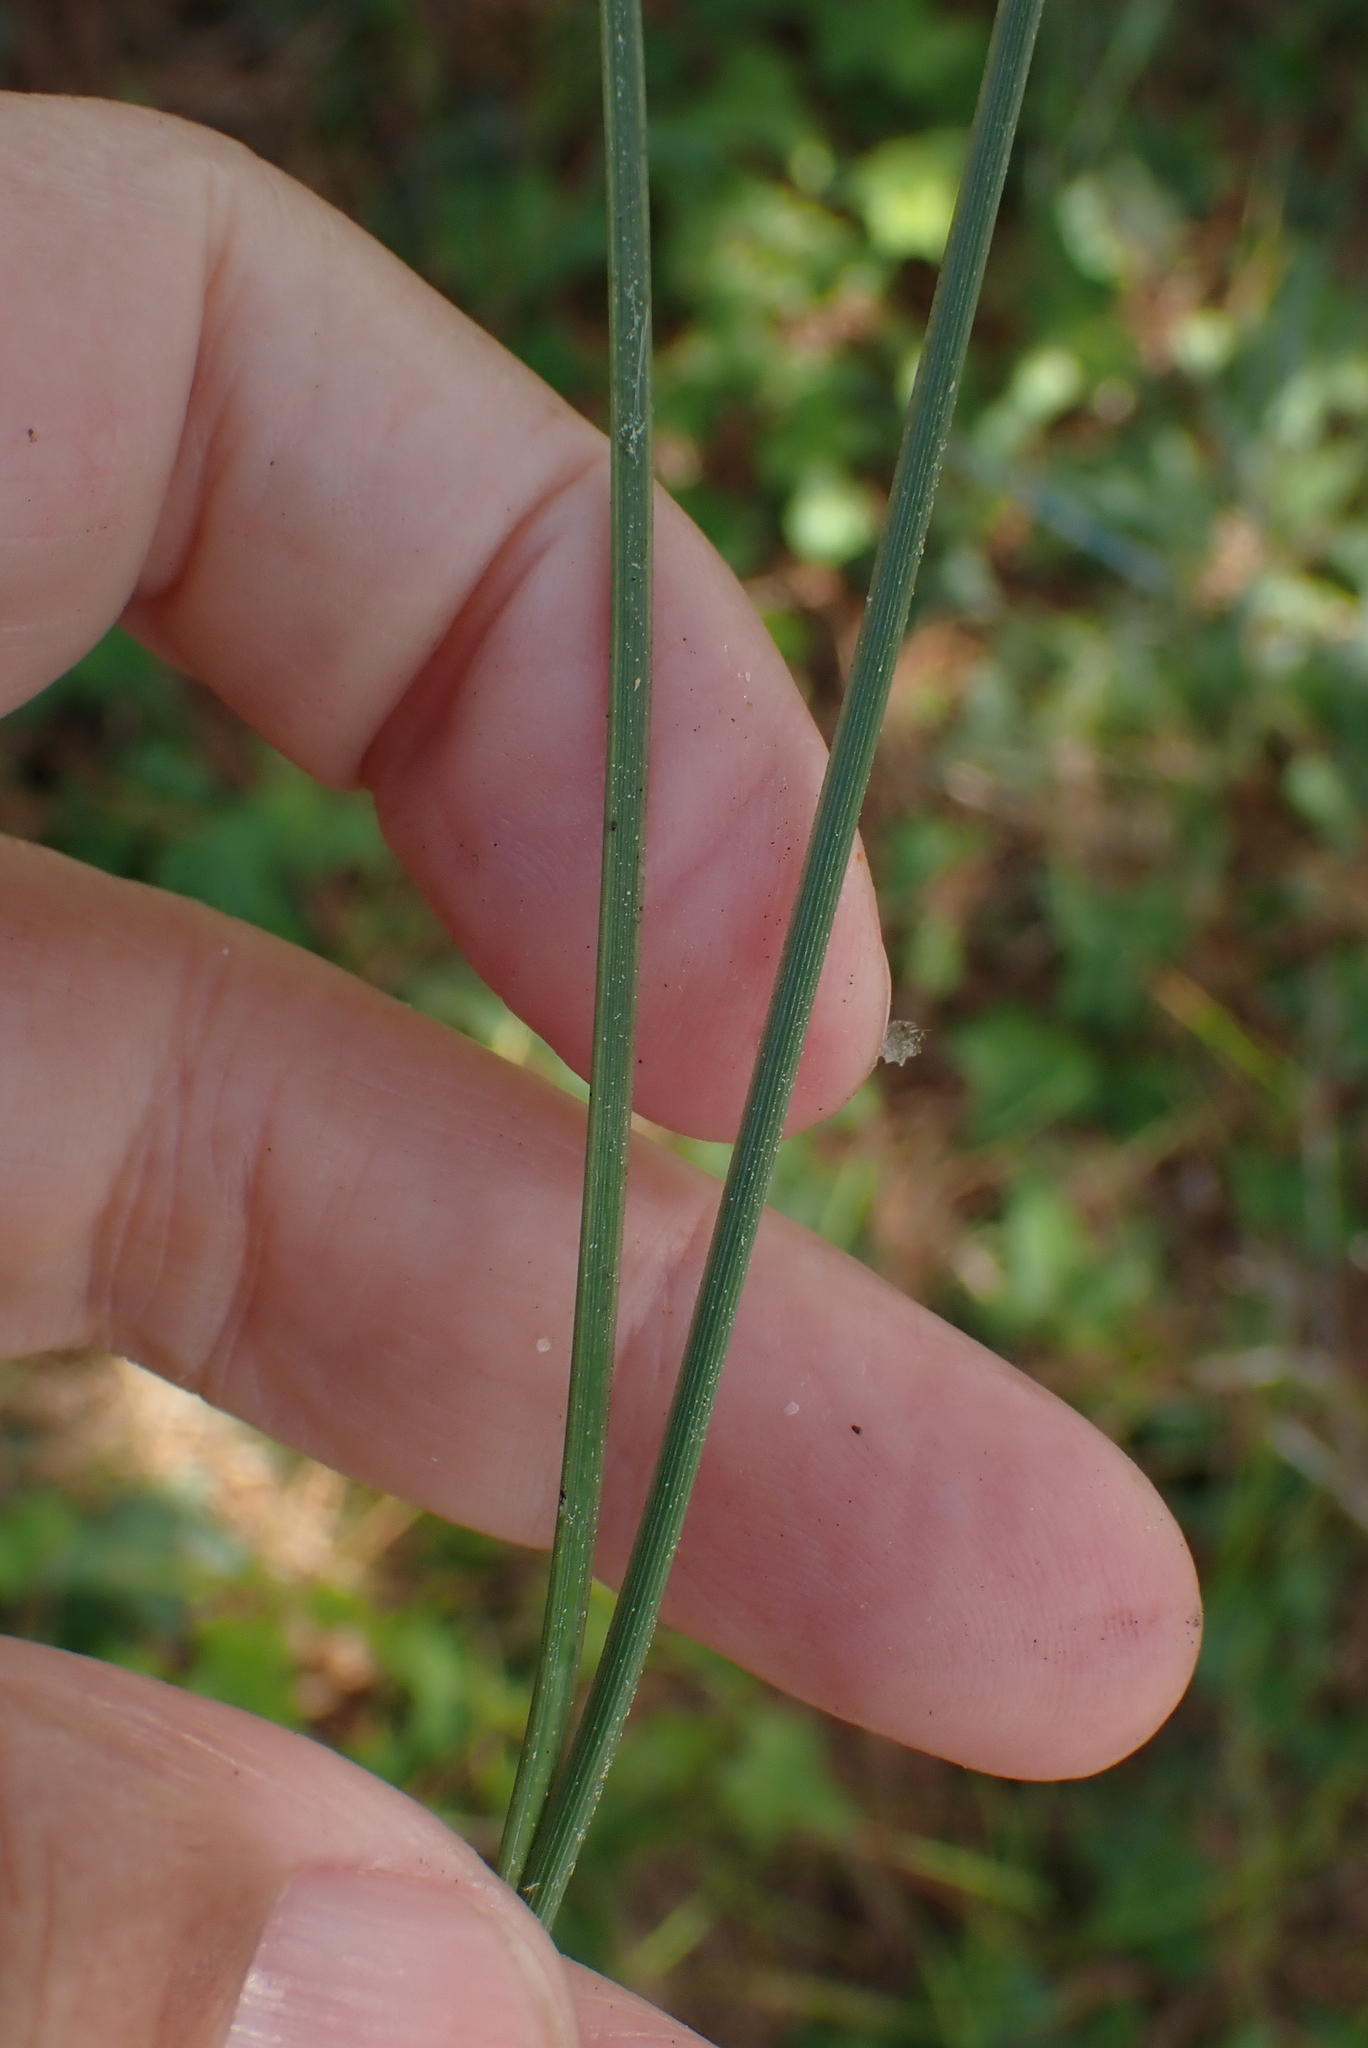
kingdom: Plantae
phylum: Tracheophyta
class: Pinopsida
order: Pinales
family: Pinaceae
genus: Pinus
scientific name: Pinus pinaster
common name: Maritime pine
